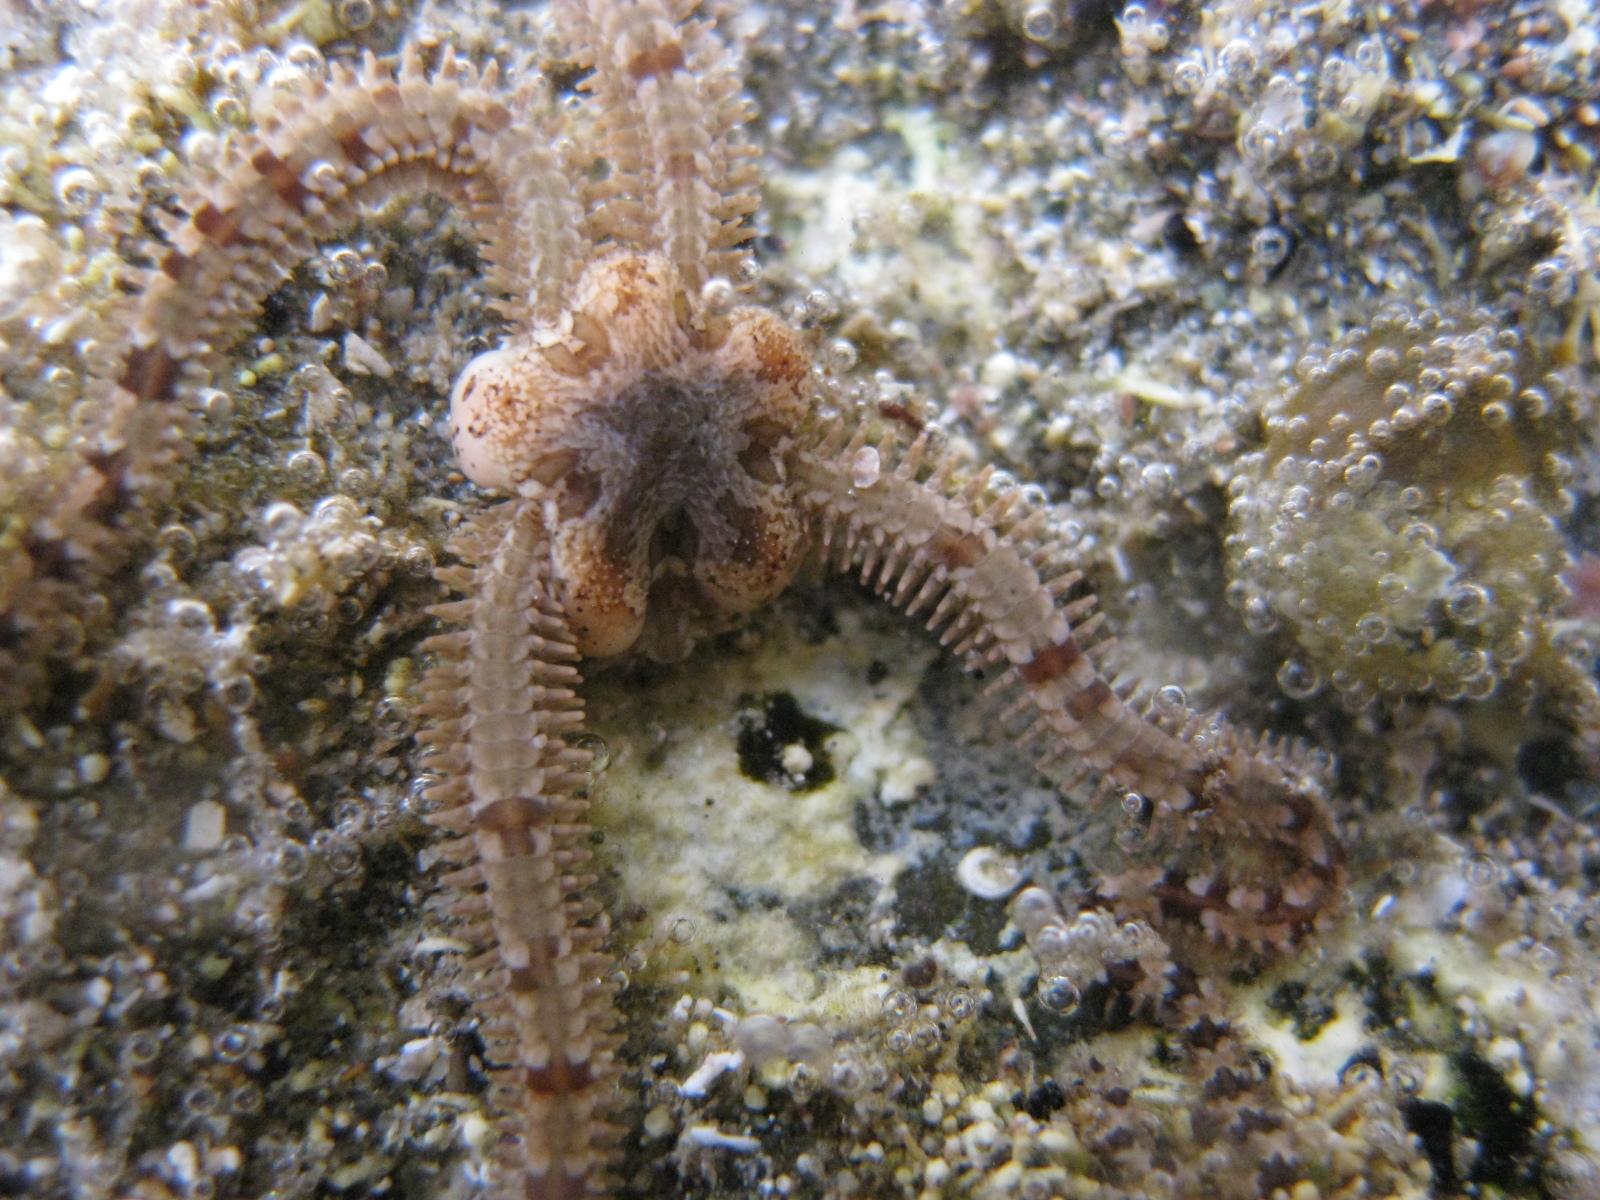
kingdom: Animalia
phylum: Echinodermata
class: Ophiuroidea
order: Amphilepidida
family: Ophiactidae
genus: Ophiactis
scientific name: Ophiactis resiliens
